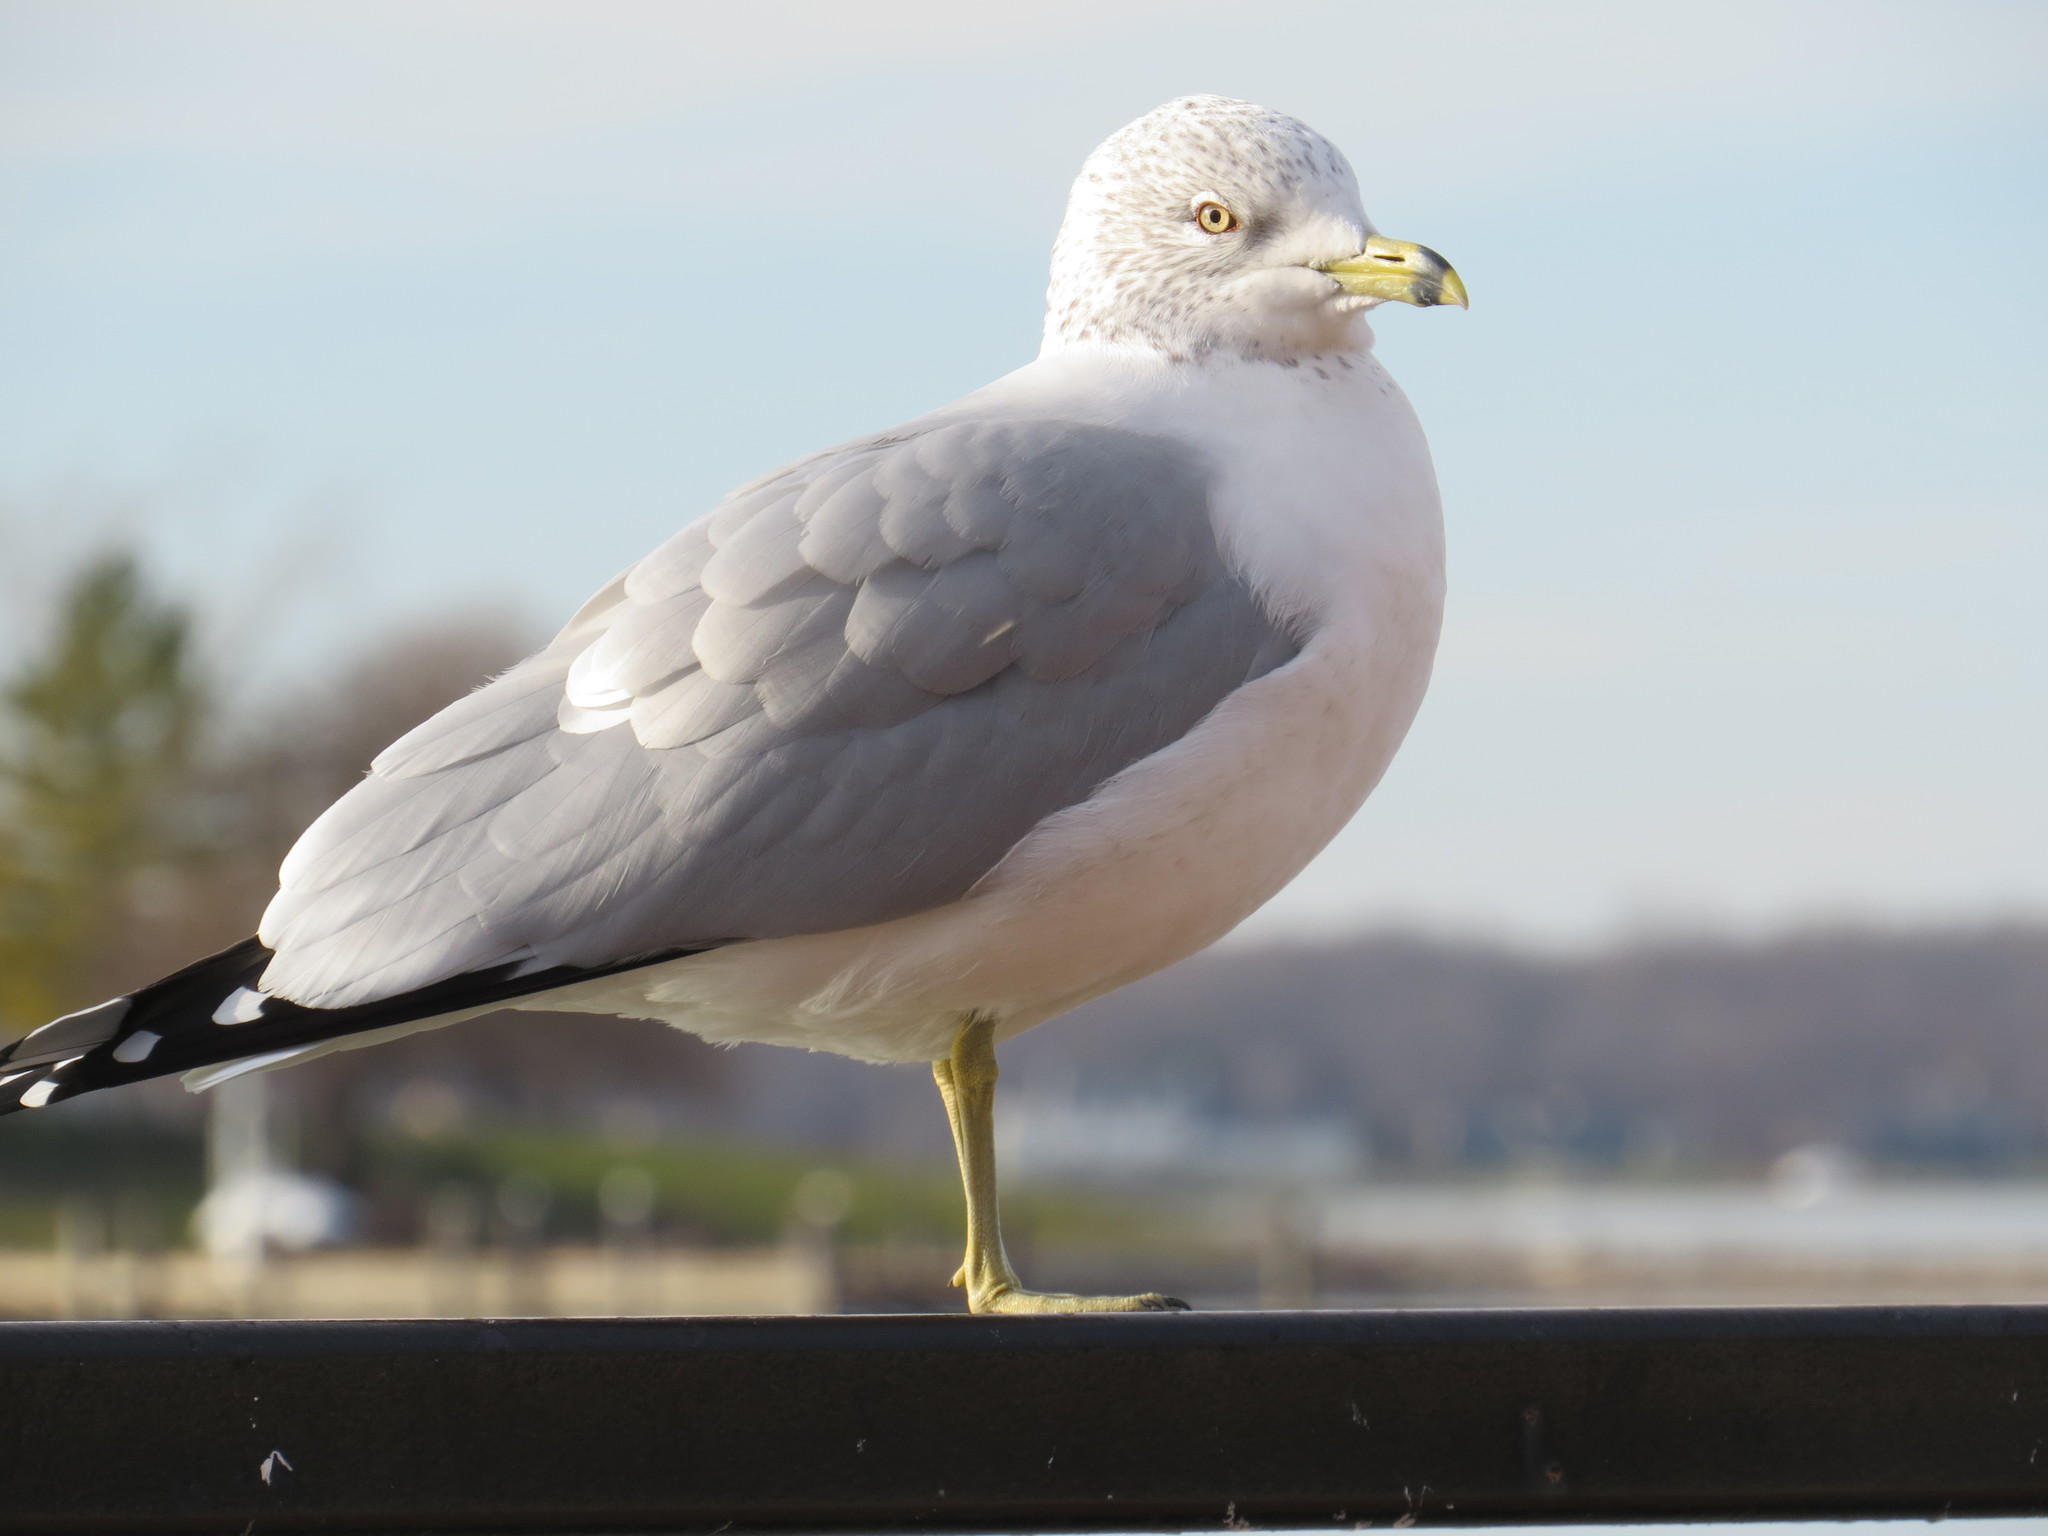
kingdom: Animalia
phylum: Chordata
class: Aves
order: Charadriiformes
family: Laridae
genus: Larus
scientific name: Larus delawarensis
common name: Ring-billed gull
